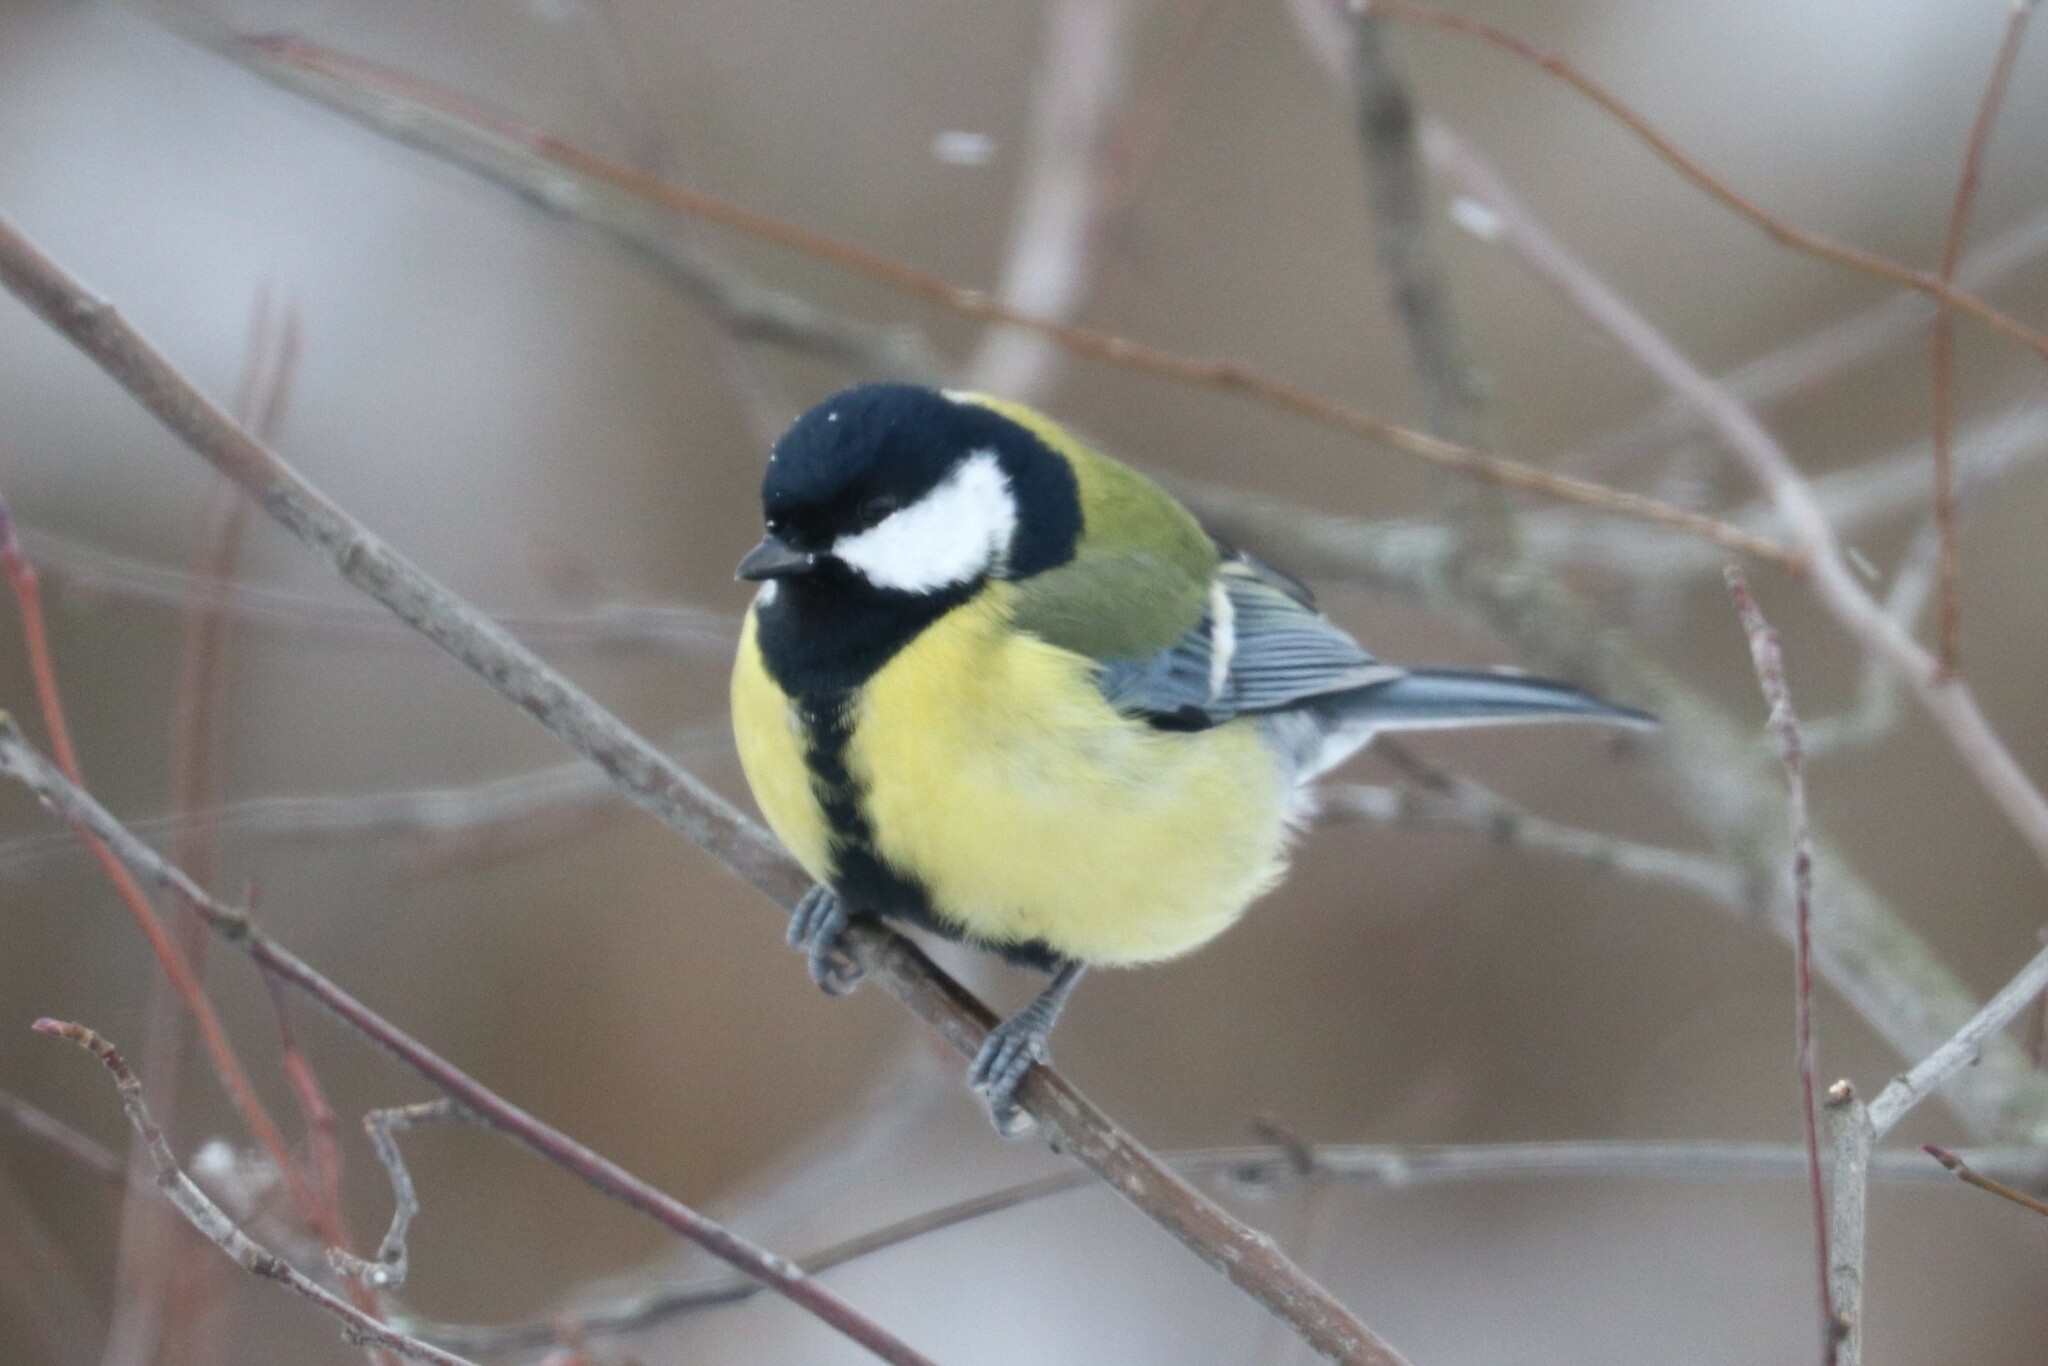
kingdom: Animalia
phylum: Chordata
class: Aves
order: Passeriformes
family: Paridae
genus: Parus
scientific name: Parus major
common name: Great tit
